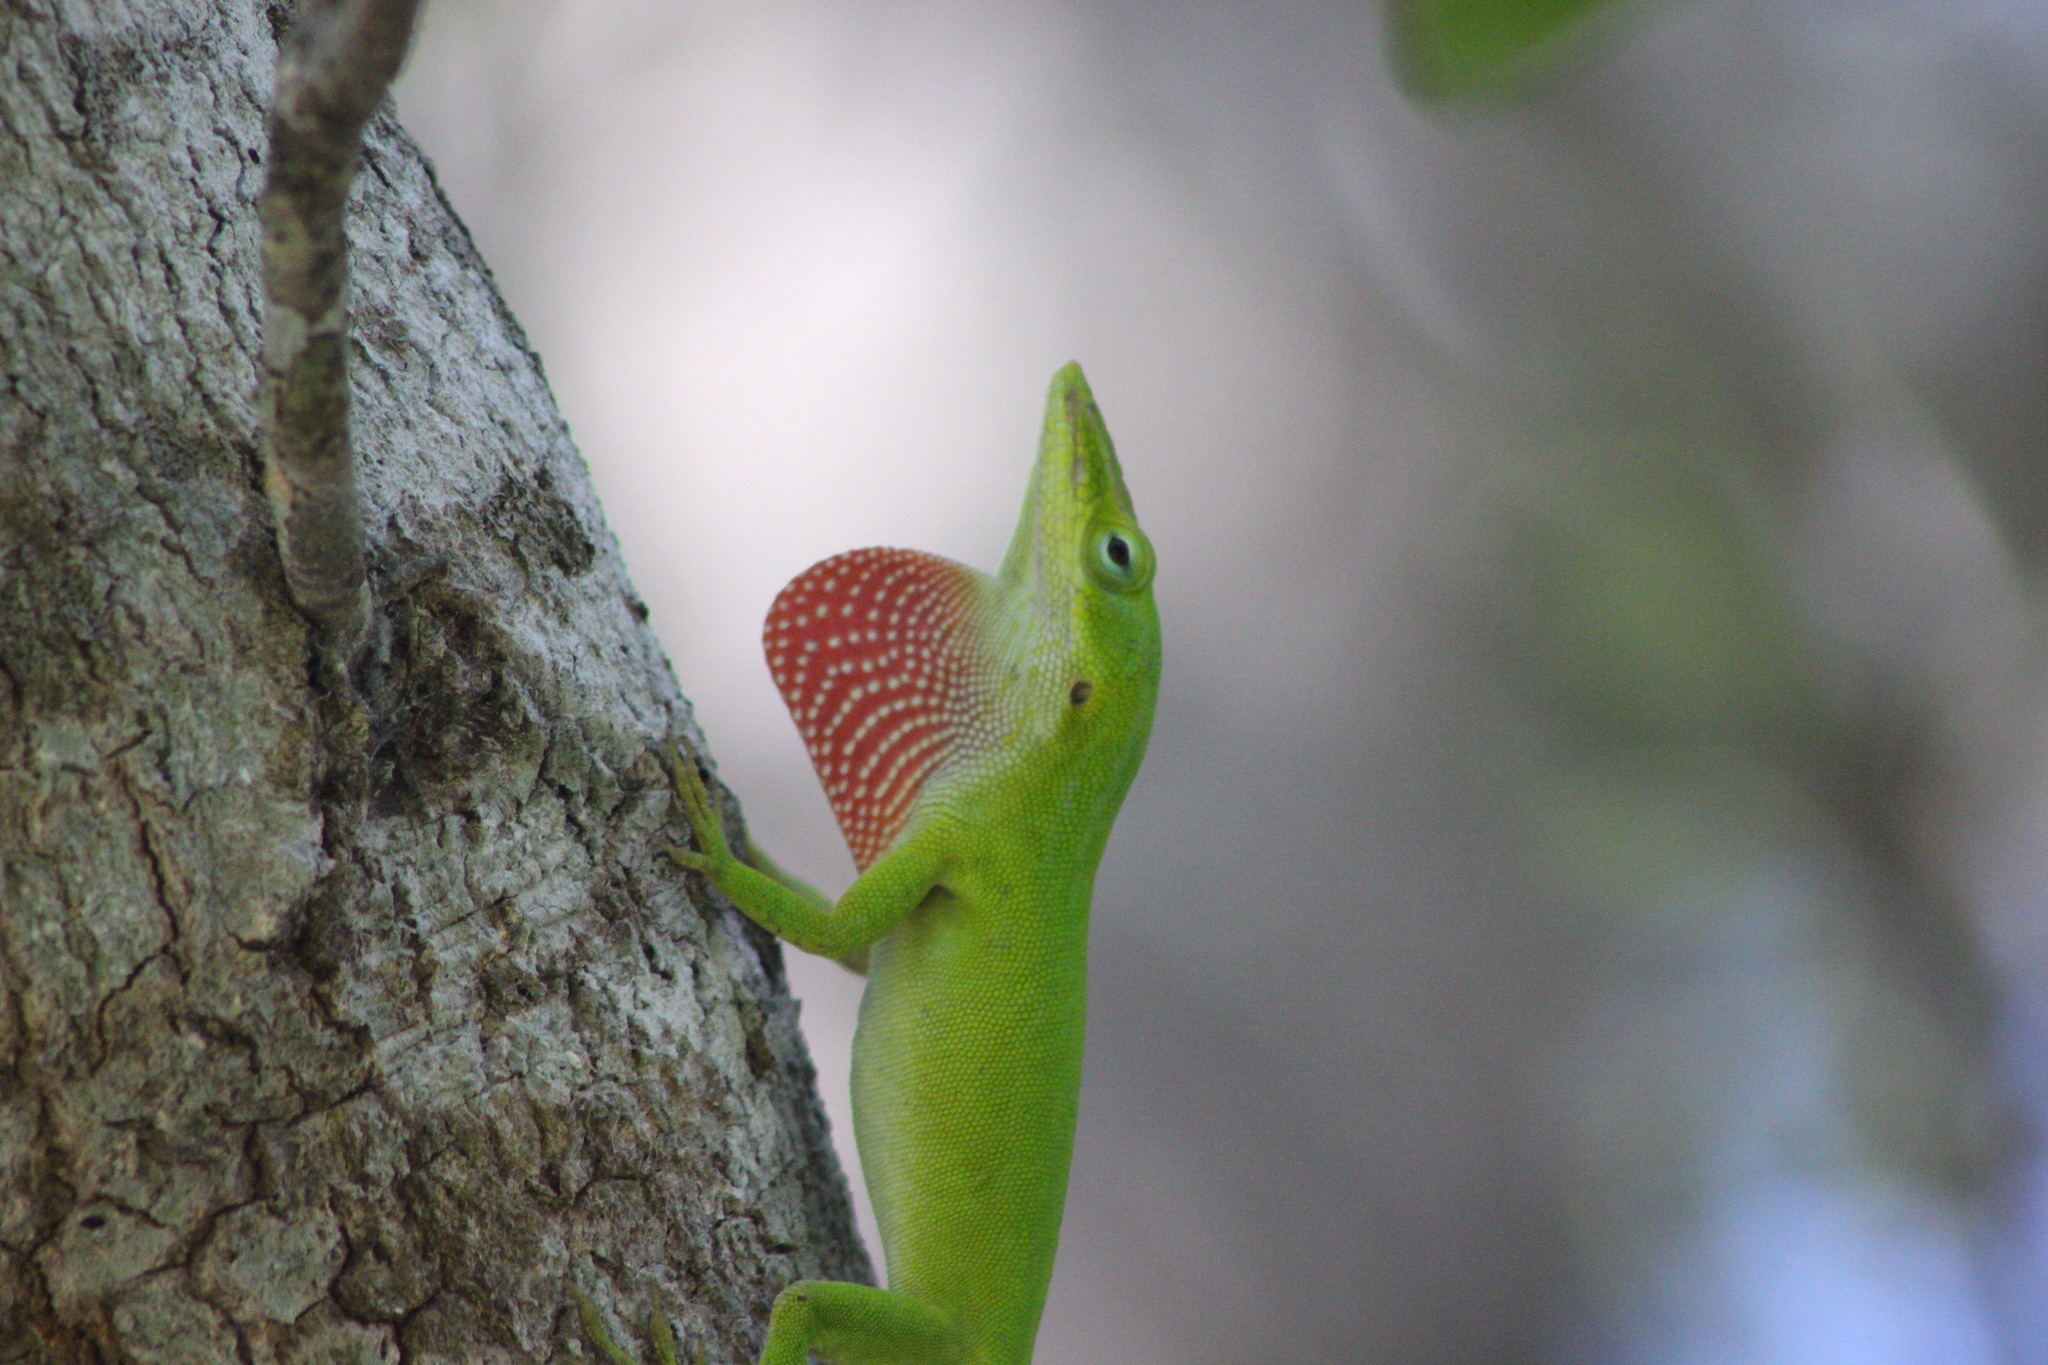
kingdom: Animalia
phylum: Chordata
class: Squamata
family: Dactyloidae
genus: Anolis
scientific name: Anolis carolinensis
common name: Green anole
